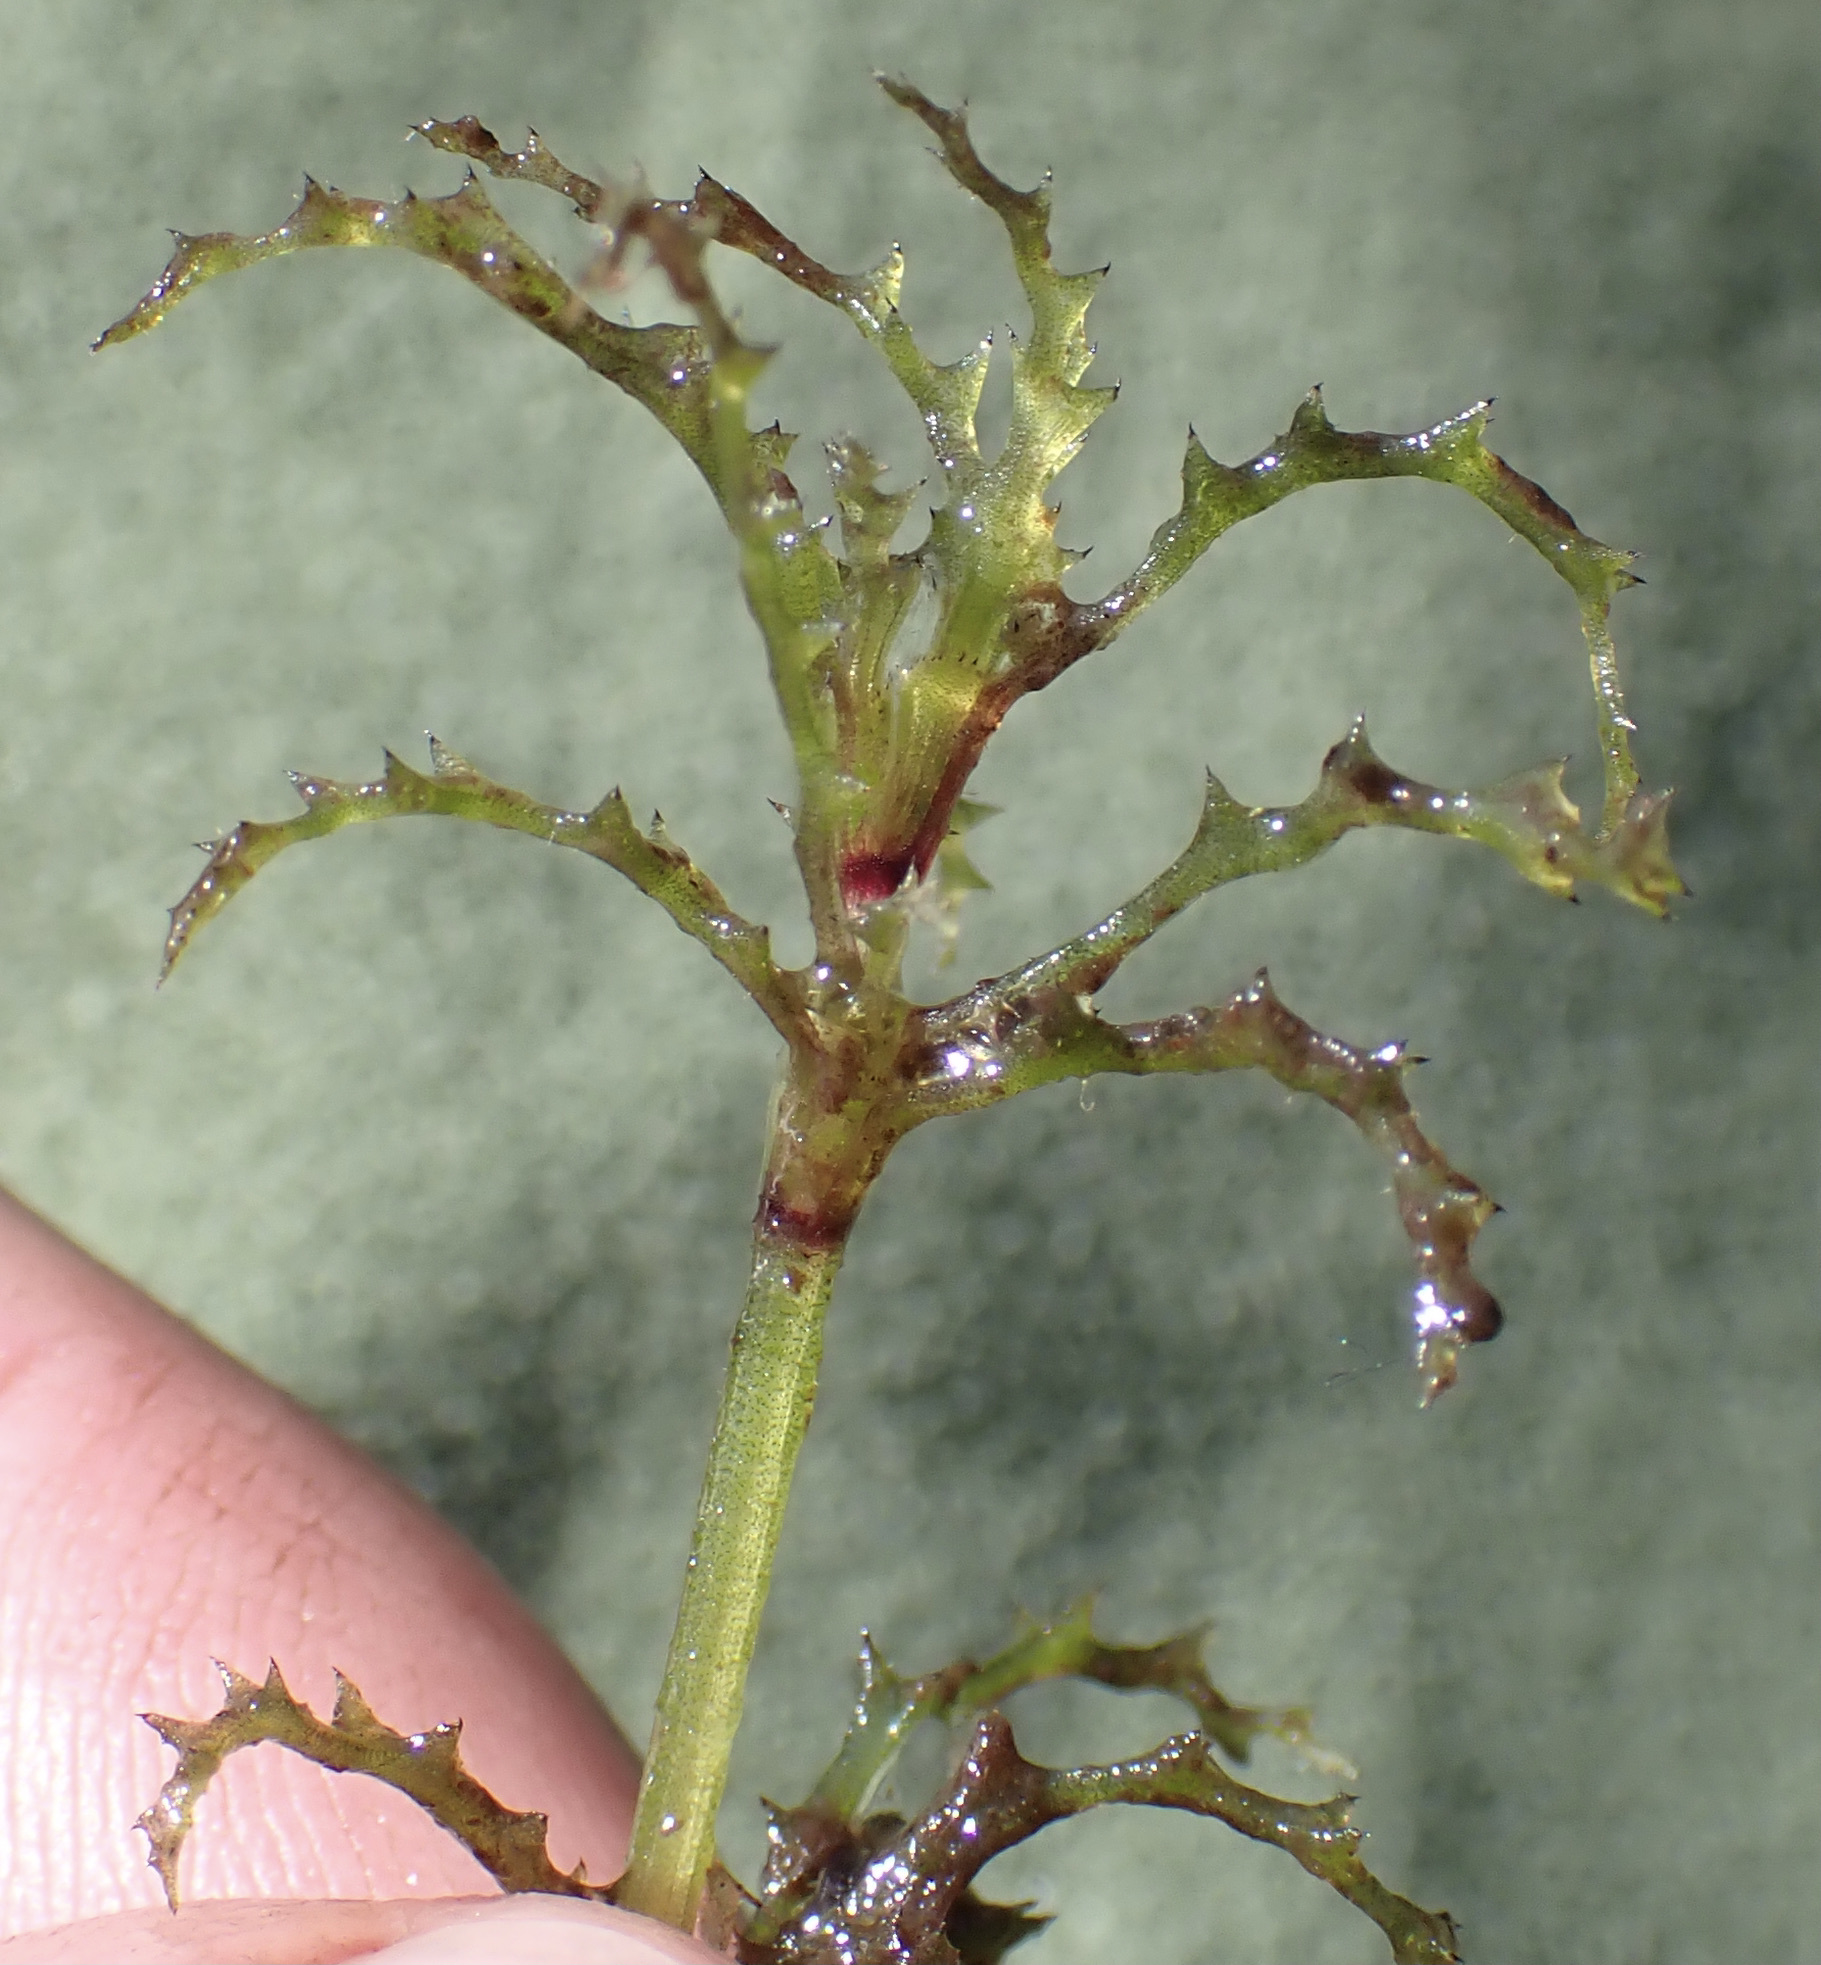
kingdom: Plantae
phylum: Tracheophyta
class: Liliopsida
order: Alismatales
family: Hydrocharitaceae
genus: Najas
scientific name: Najas horrida
